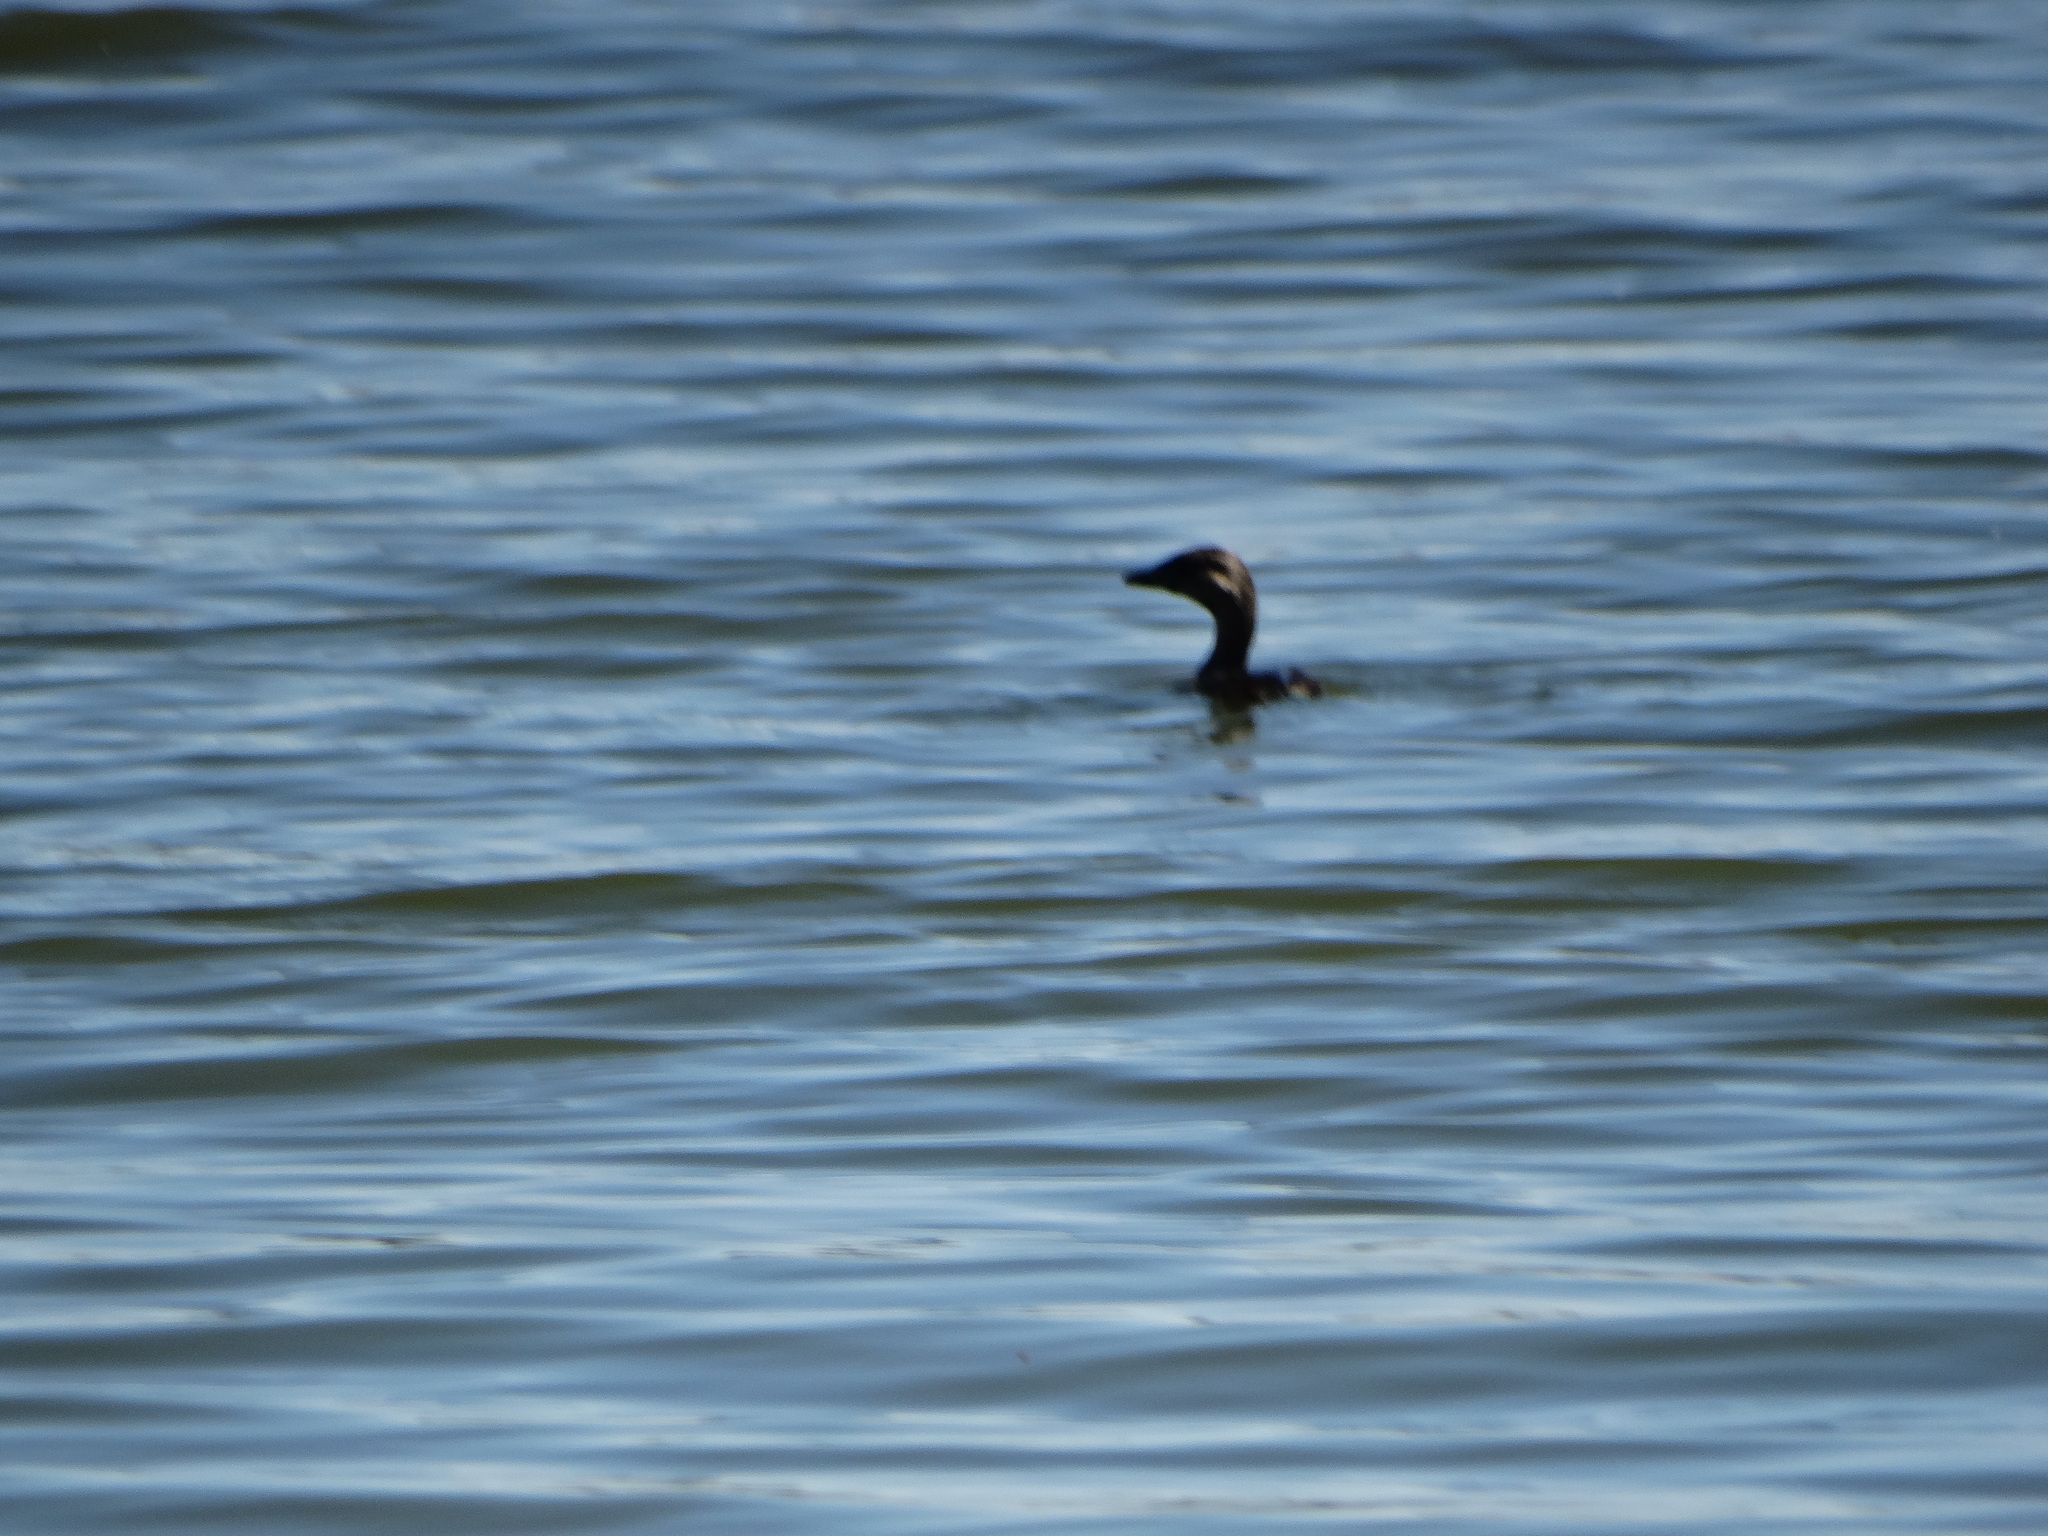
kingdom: Animalia
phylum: Chordata
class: Aves
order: Podicipediformes
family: Podicipedidae
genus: Podilymbus
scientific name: Podilymbus podiceps
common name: Pied-billed grebe
